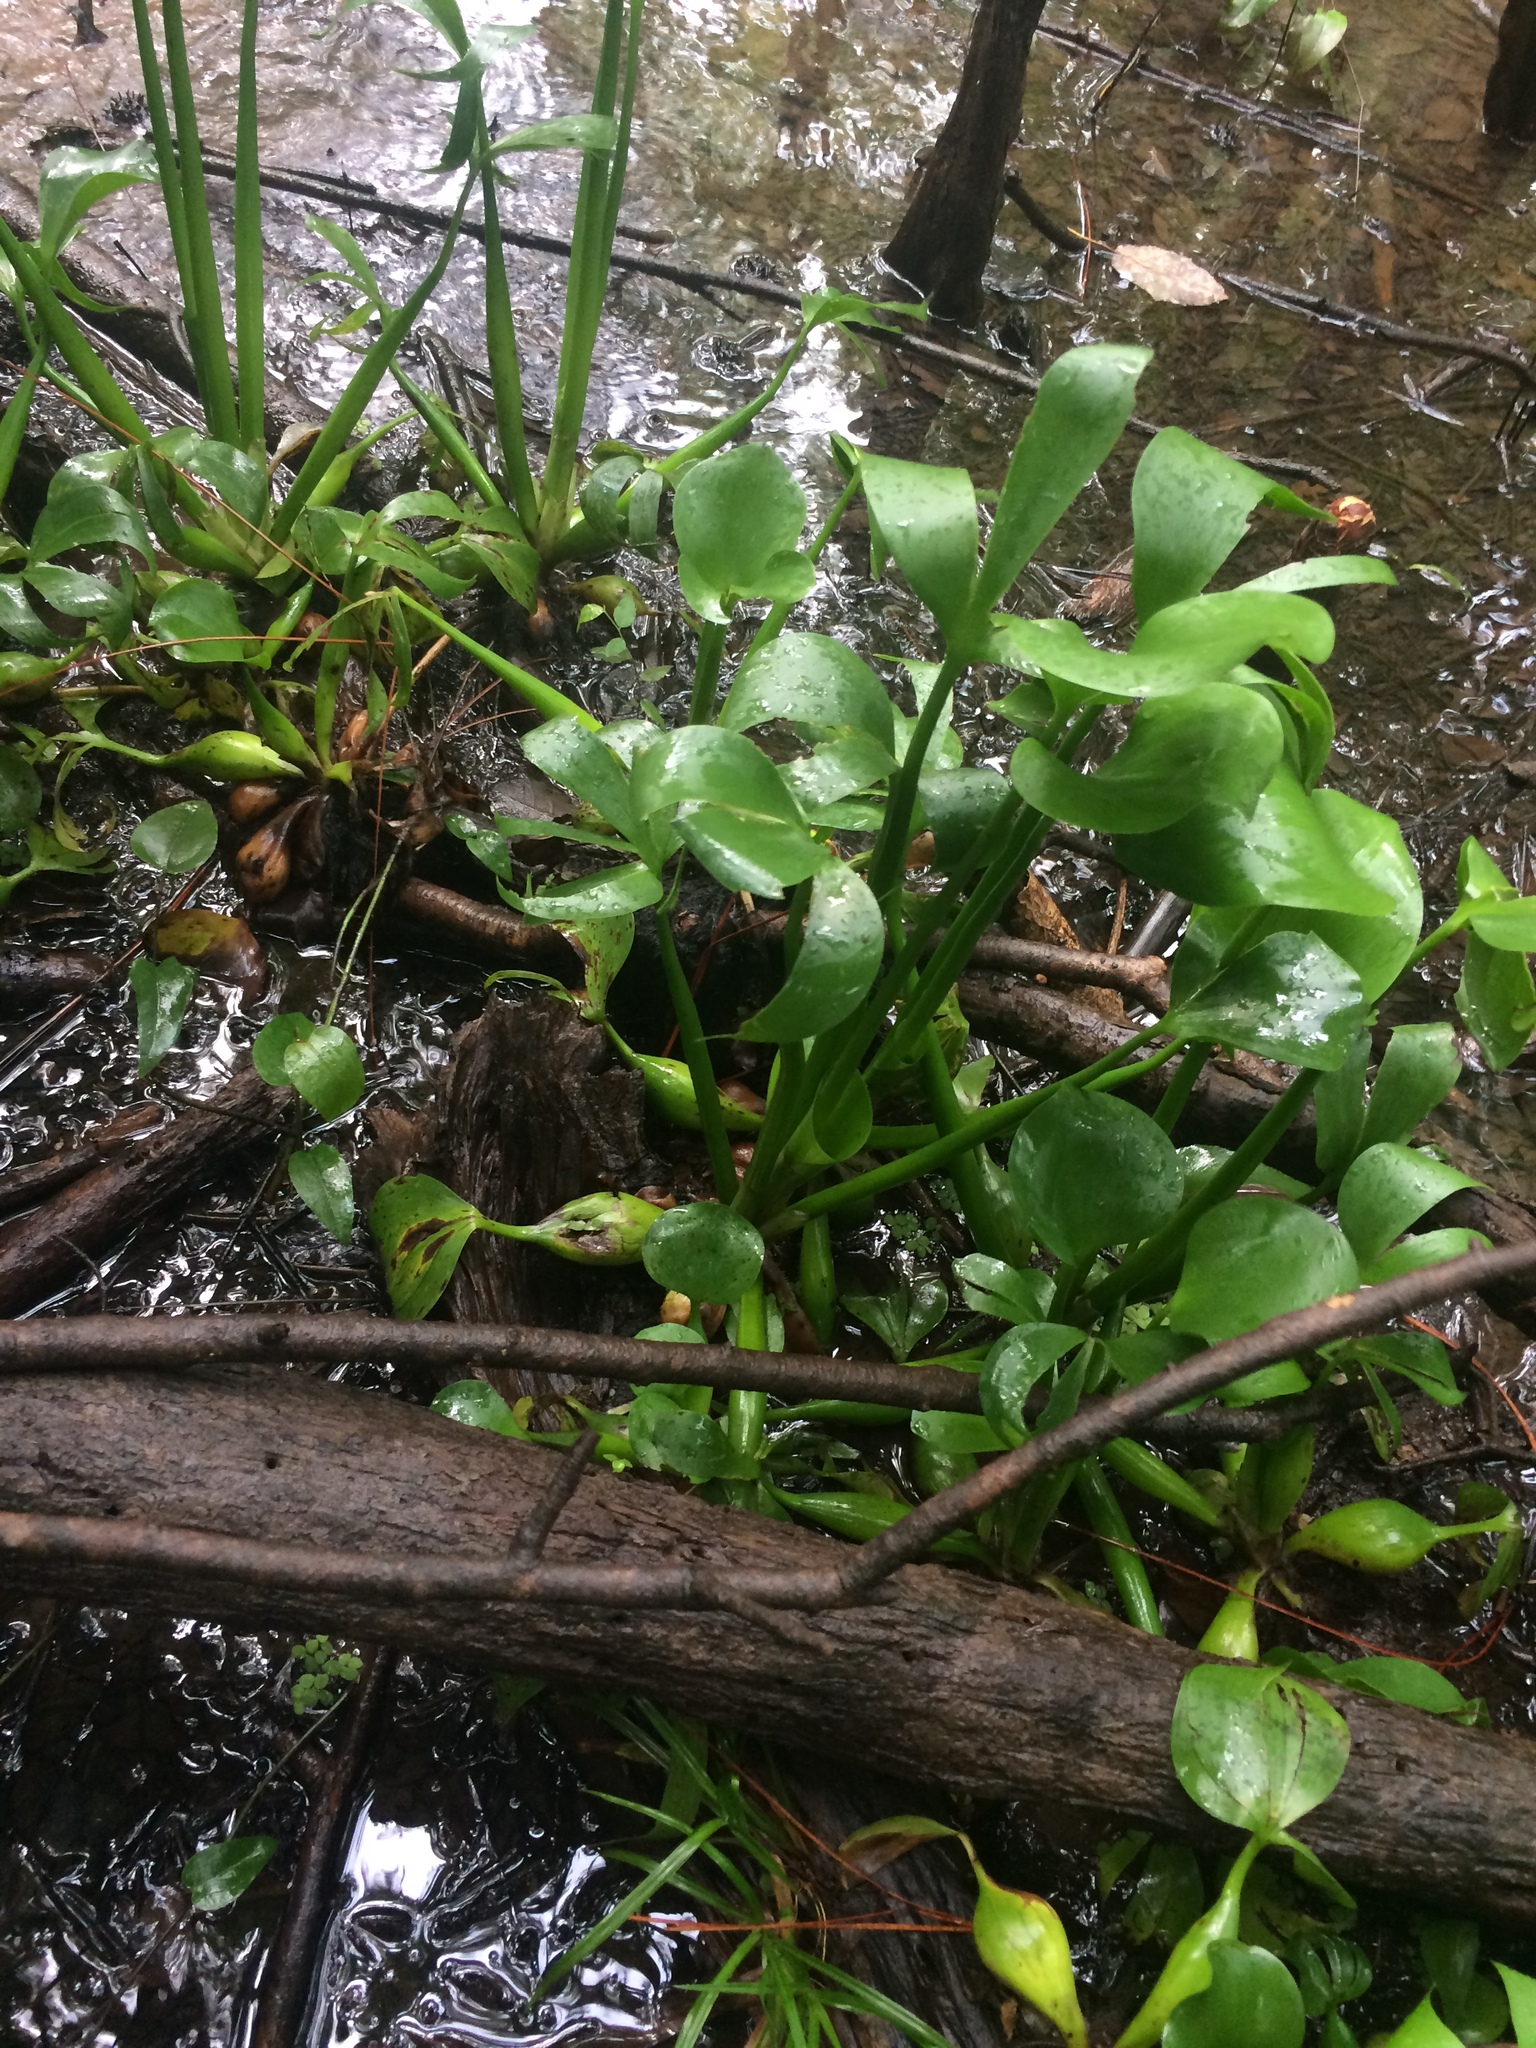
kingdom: Plantae
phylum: Tracheophyta
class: Liliopsida
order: Commelinales
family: Pontederiaceae
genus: Pontederia
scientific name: Pontederia crassipes
